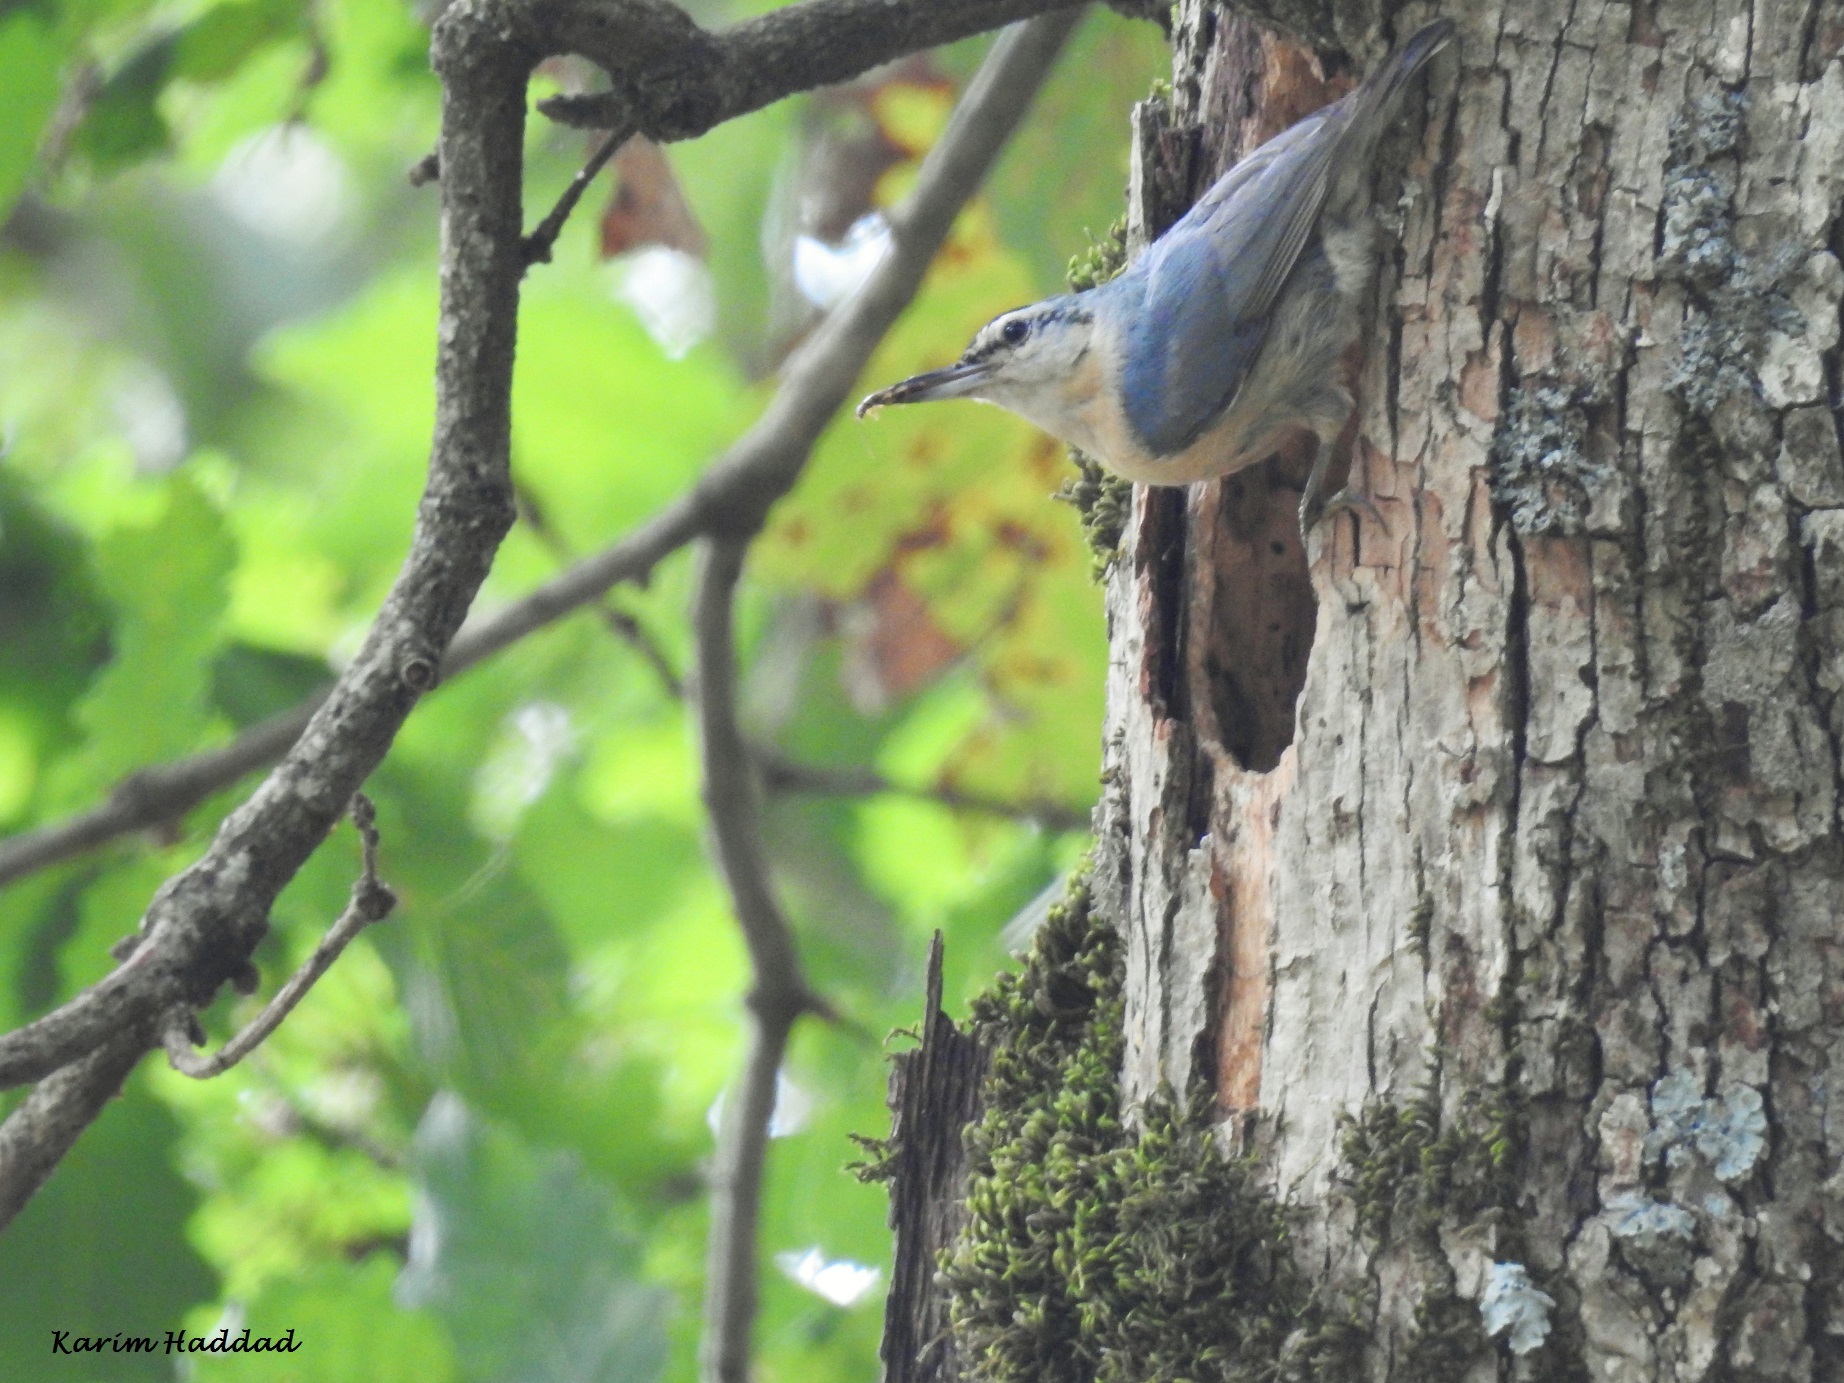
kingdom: Animalia
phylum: Chordata
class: Aves
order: Passeriformes
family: Sittidae
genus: Sitta
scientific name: Sitta ledanti
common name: Algerian nuthatch
